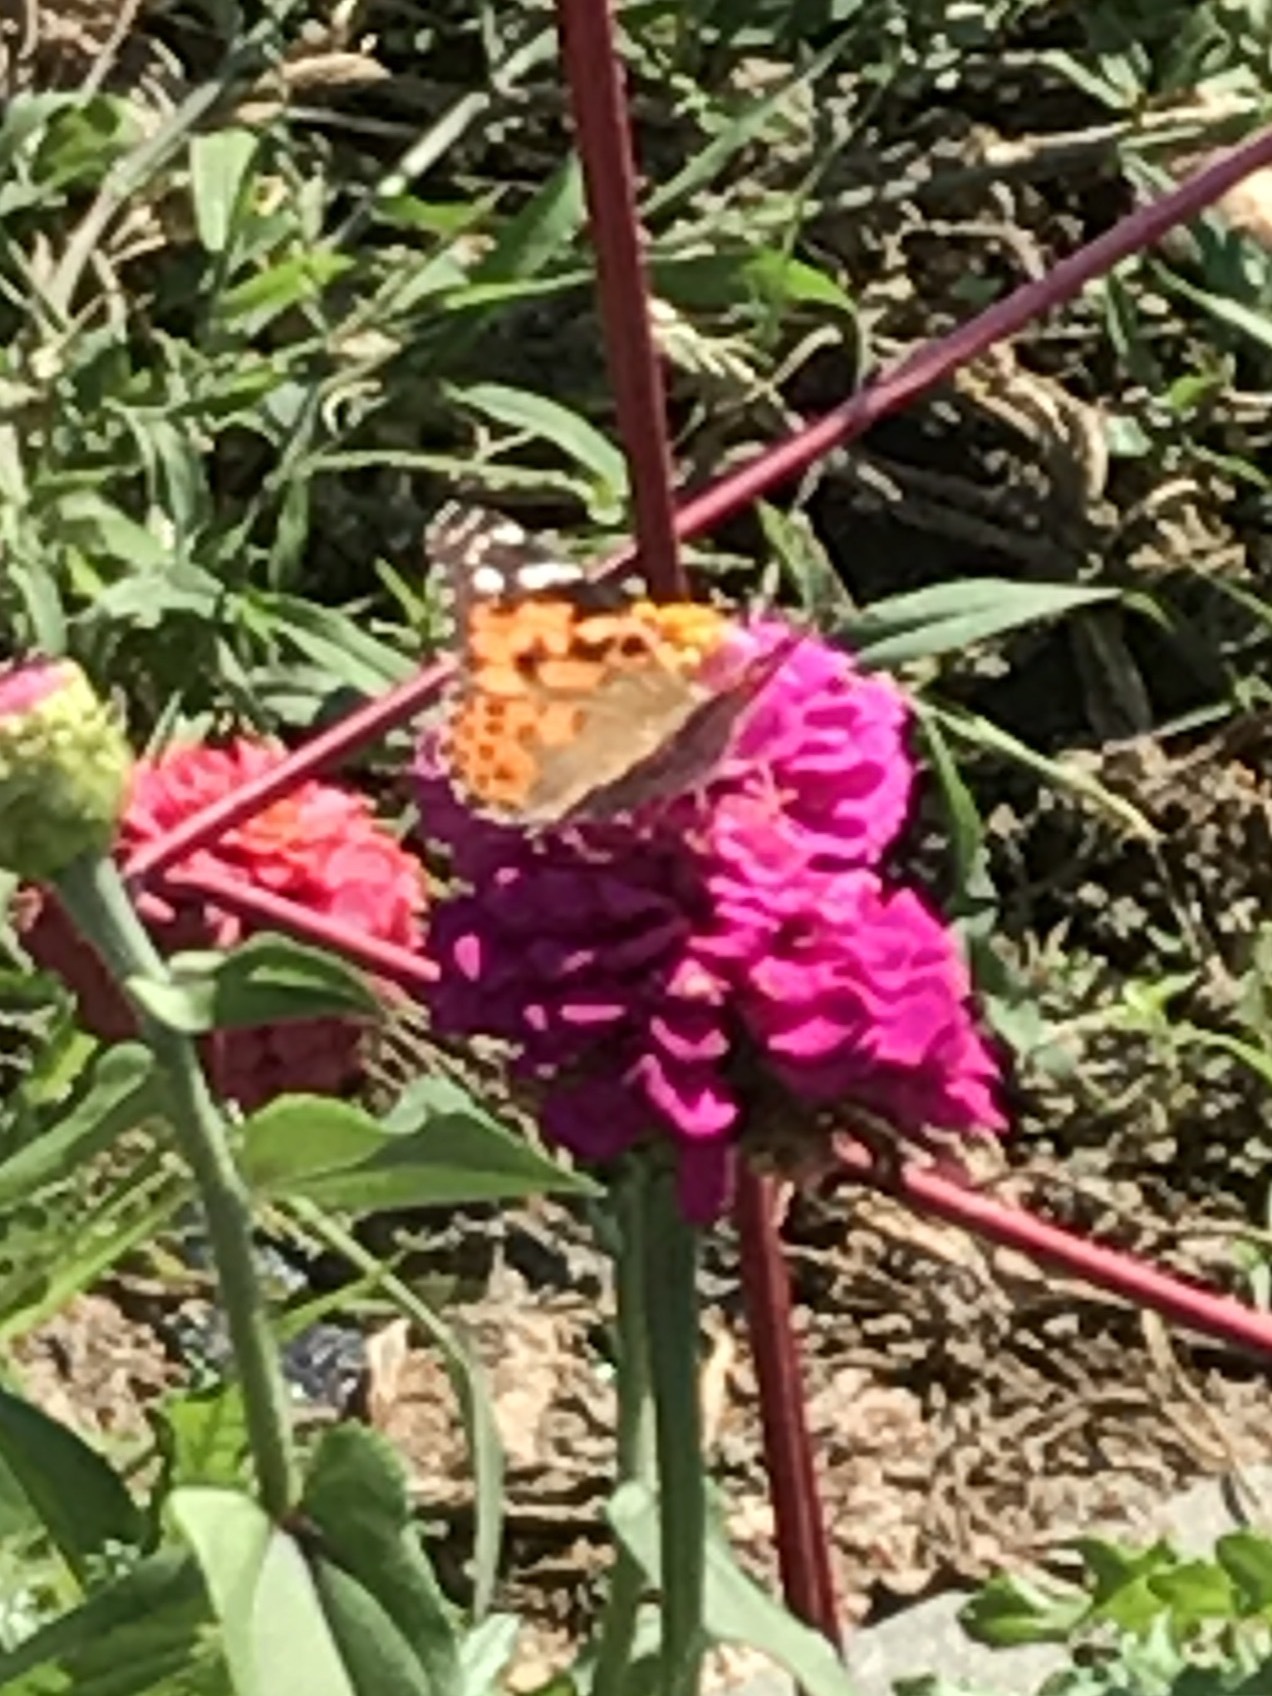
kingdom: Animalia
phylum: Arthropoda
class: Insecta
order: Lepidoptera
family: Nymphalidae
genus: Vanessa
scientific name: Vanessa cardui
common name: Painted lady
